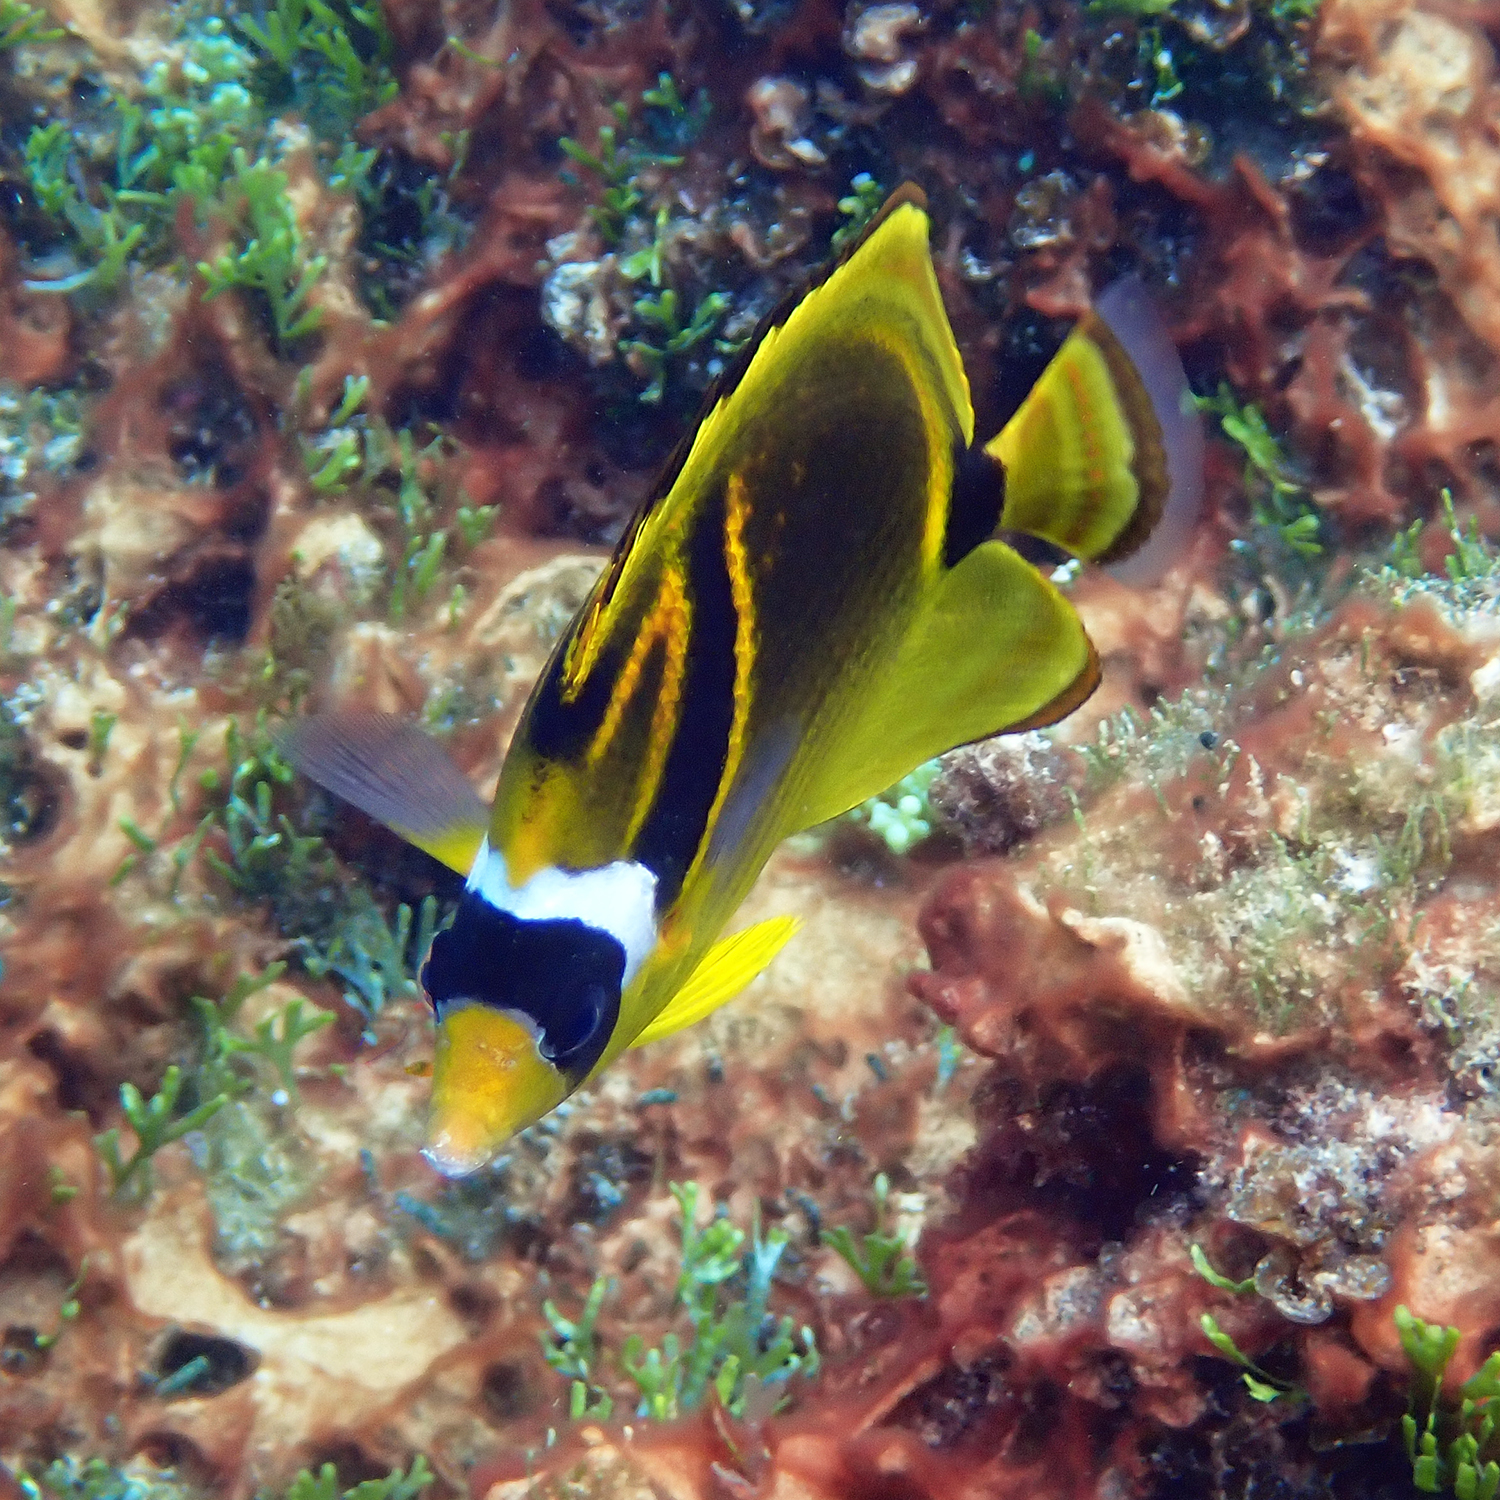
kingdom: Animalia
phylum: Chordata
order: Perciformes
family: Chaetodontidae
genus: Chaetodon
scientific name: Chaetodon lunula
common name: Raccoon butterflyfish
